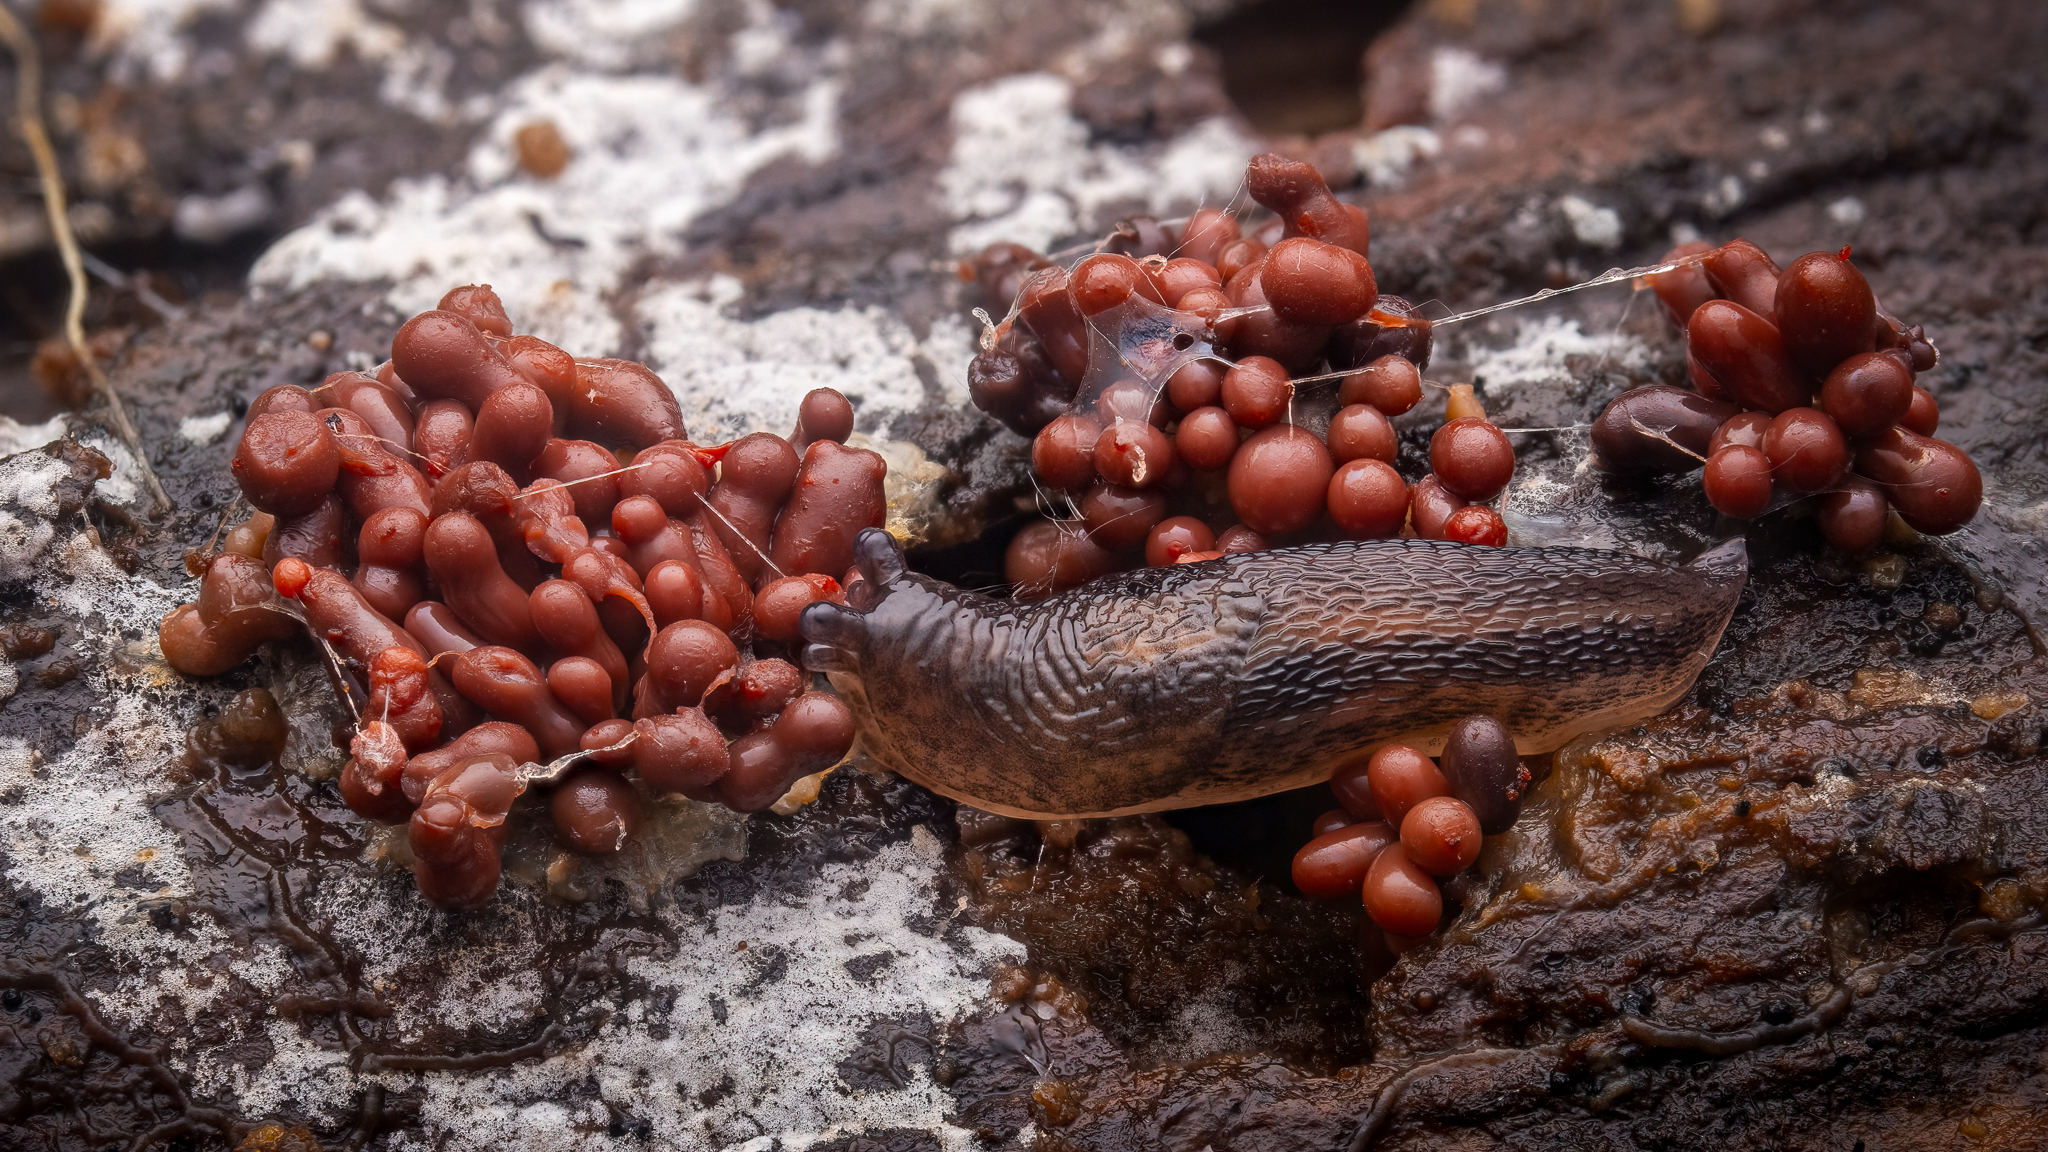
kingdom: Animalia
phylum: Mollusca
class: Gastropoda
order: Stylommatophora
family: Limacidae
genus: Limax
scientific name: Limax maximus
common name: Great grey slug
